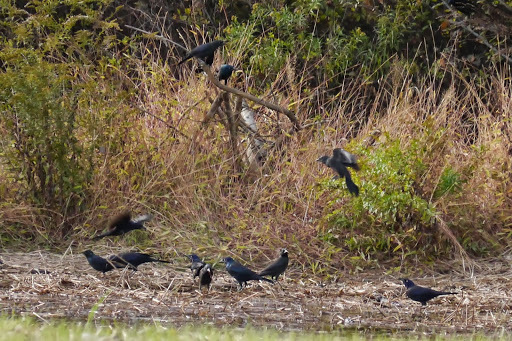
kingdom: Animalia
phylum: Chordata
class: Aves
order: Passeriformes
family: Icteridae
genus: Quiscalus
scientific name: Quiscalus quiscula
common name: Common grackle
